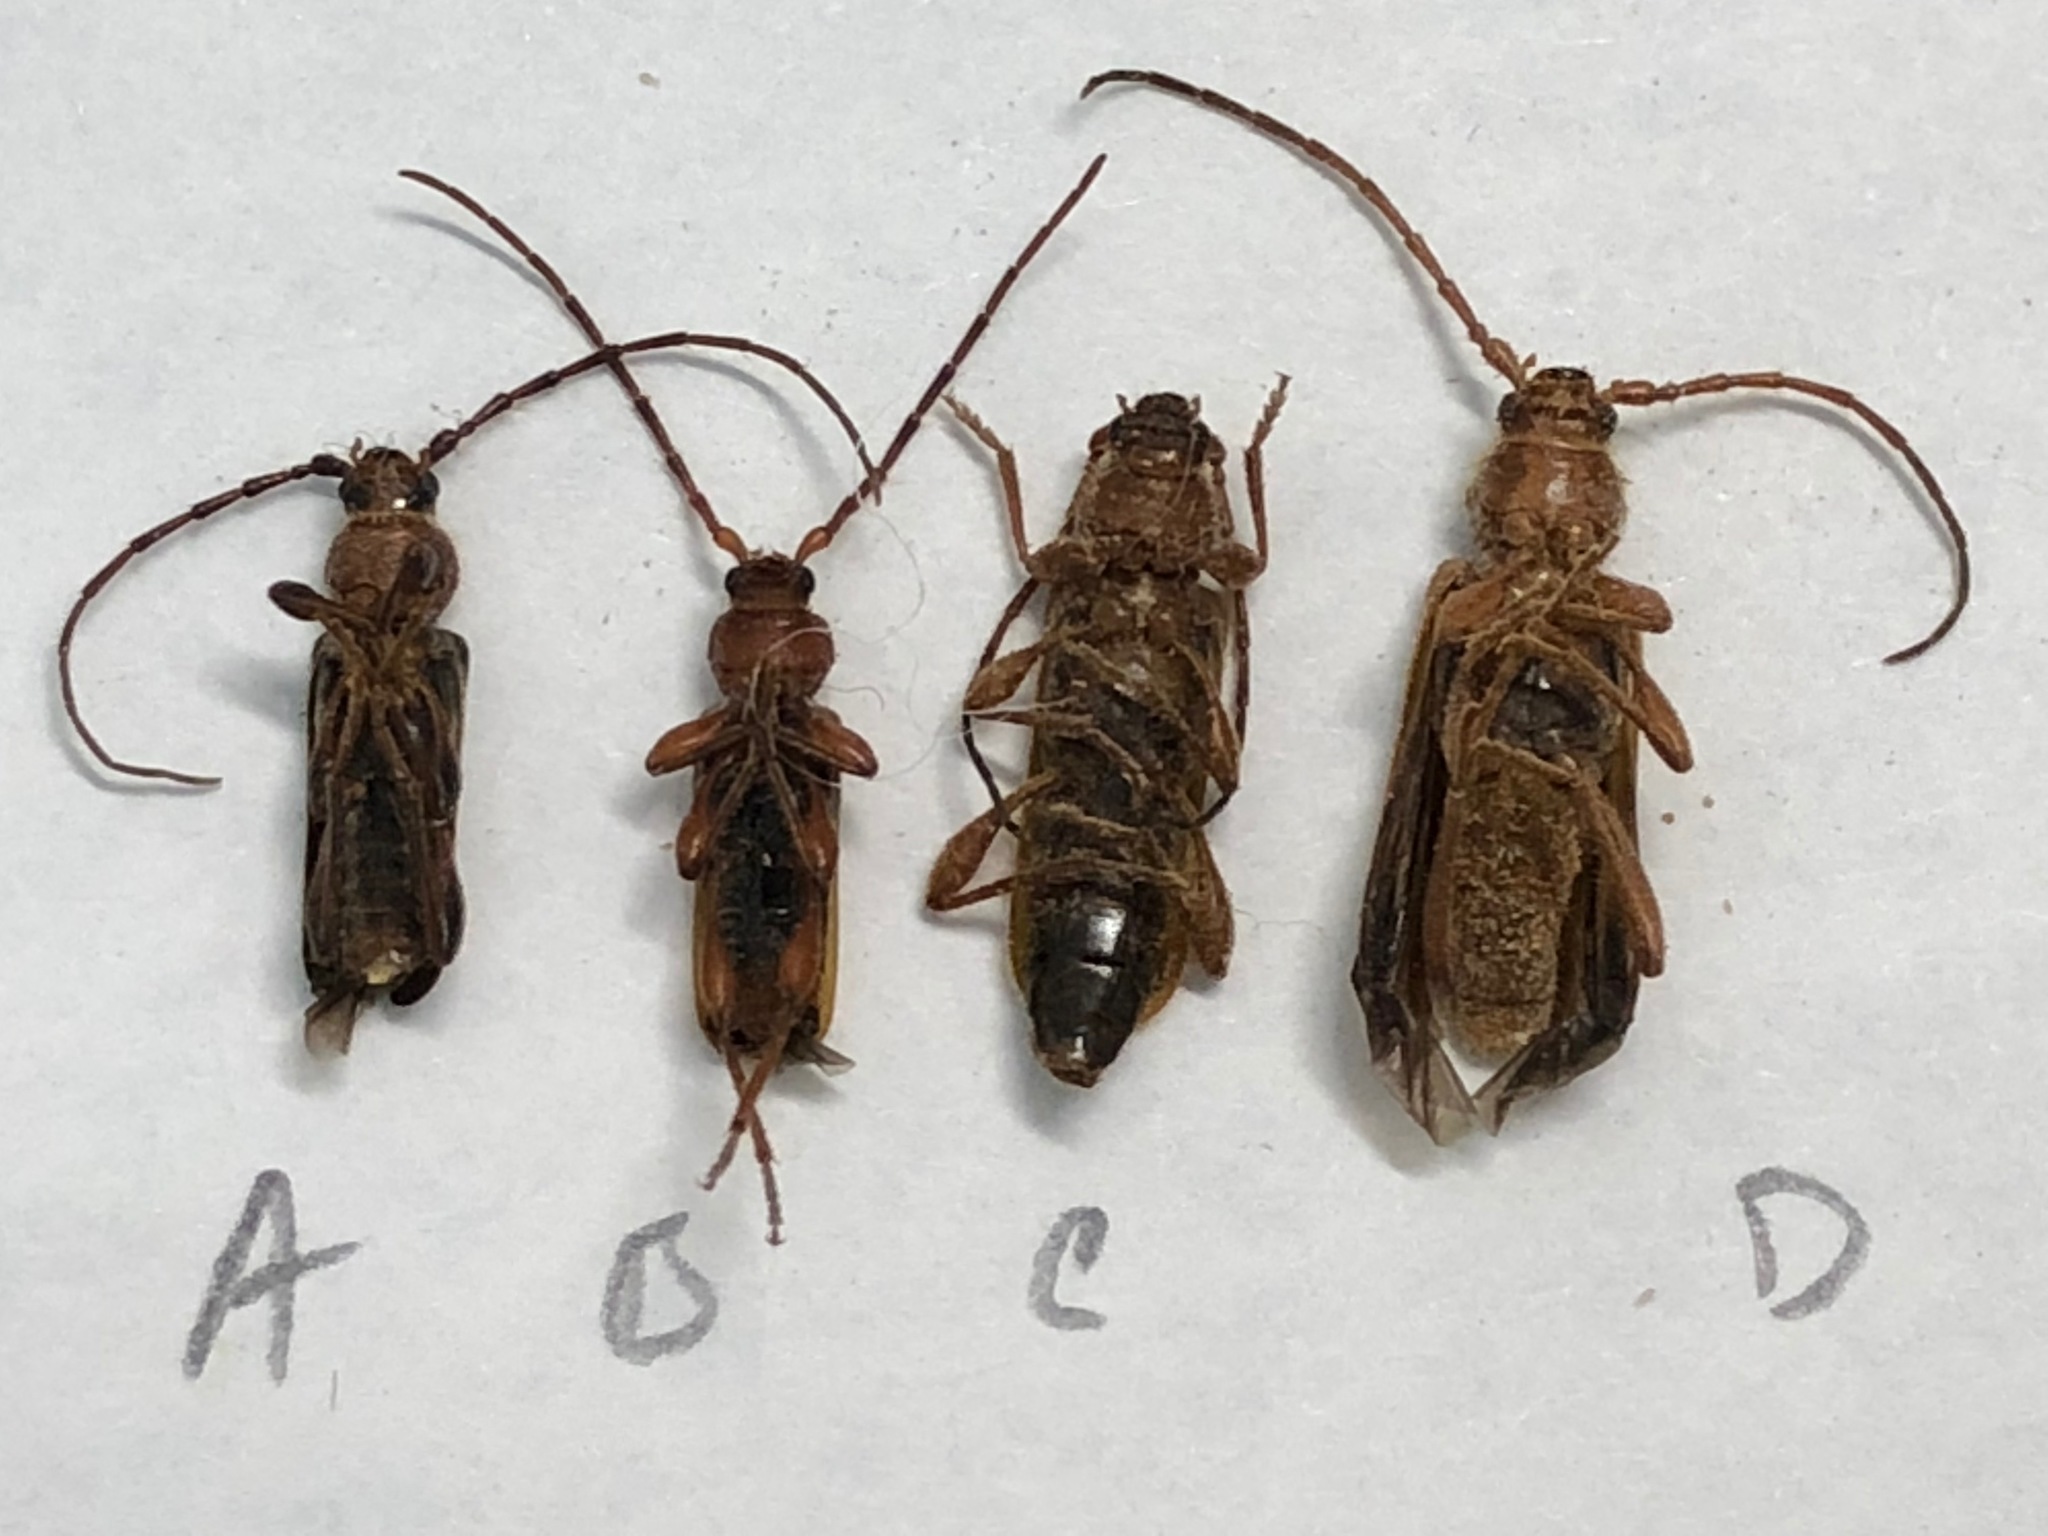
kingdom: Animalia
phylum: Arthropoda
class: Insecta
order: Coleoptera
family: Cerambycidae
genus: Phymatodes
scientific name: Phymatodes testaceus
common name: Long-horned beetle
